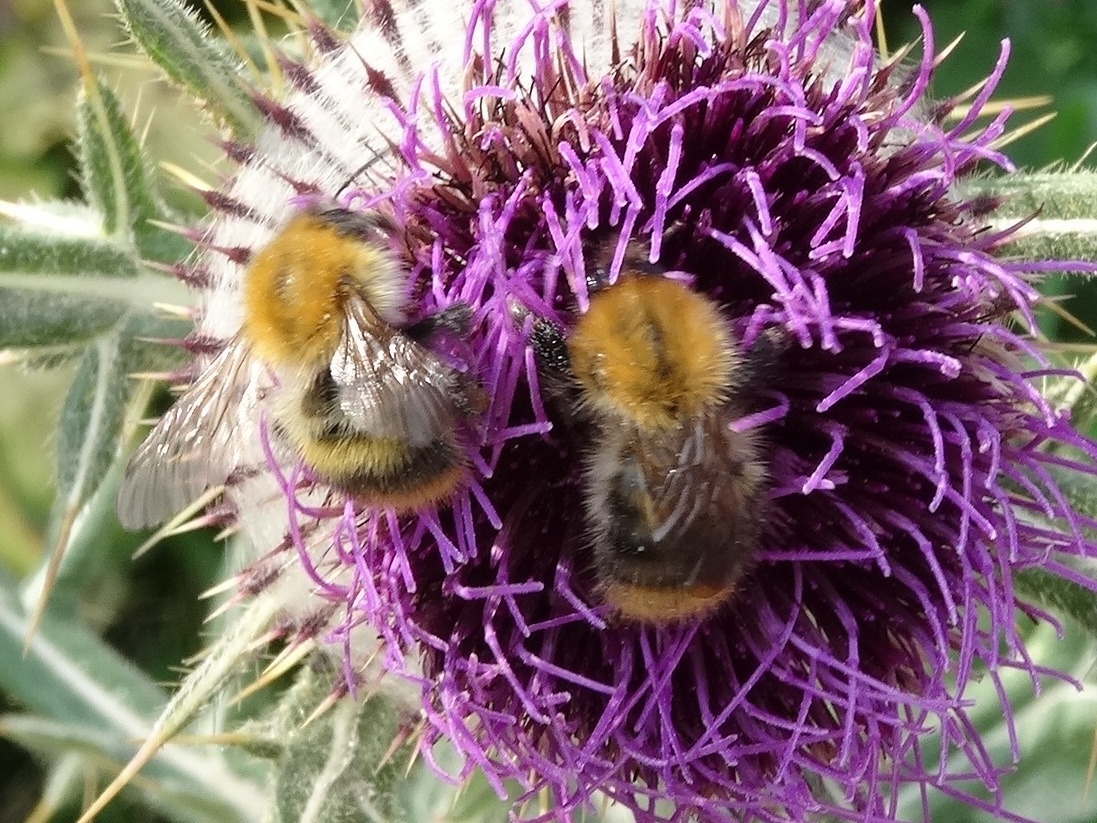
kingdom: Animalia
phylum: Arthropoda
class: Insecta
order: Hymenoptera
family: Apidae
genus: Bombus
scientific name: Bombus pascuorum
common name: Common carder bee
